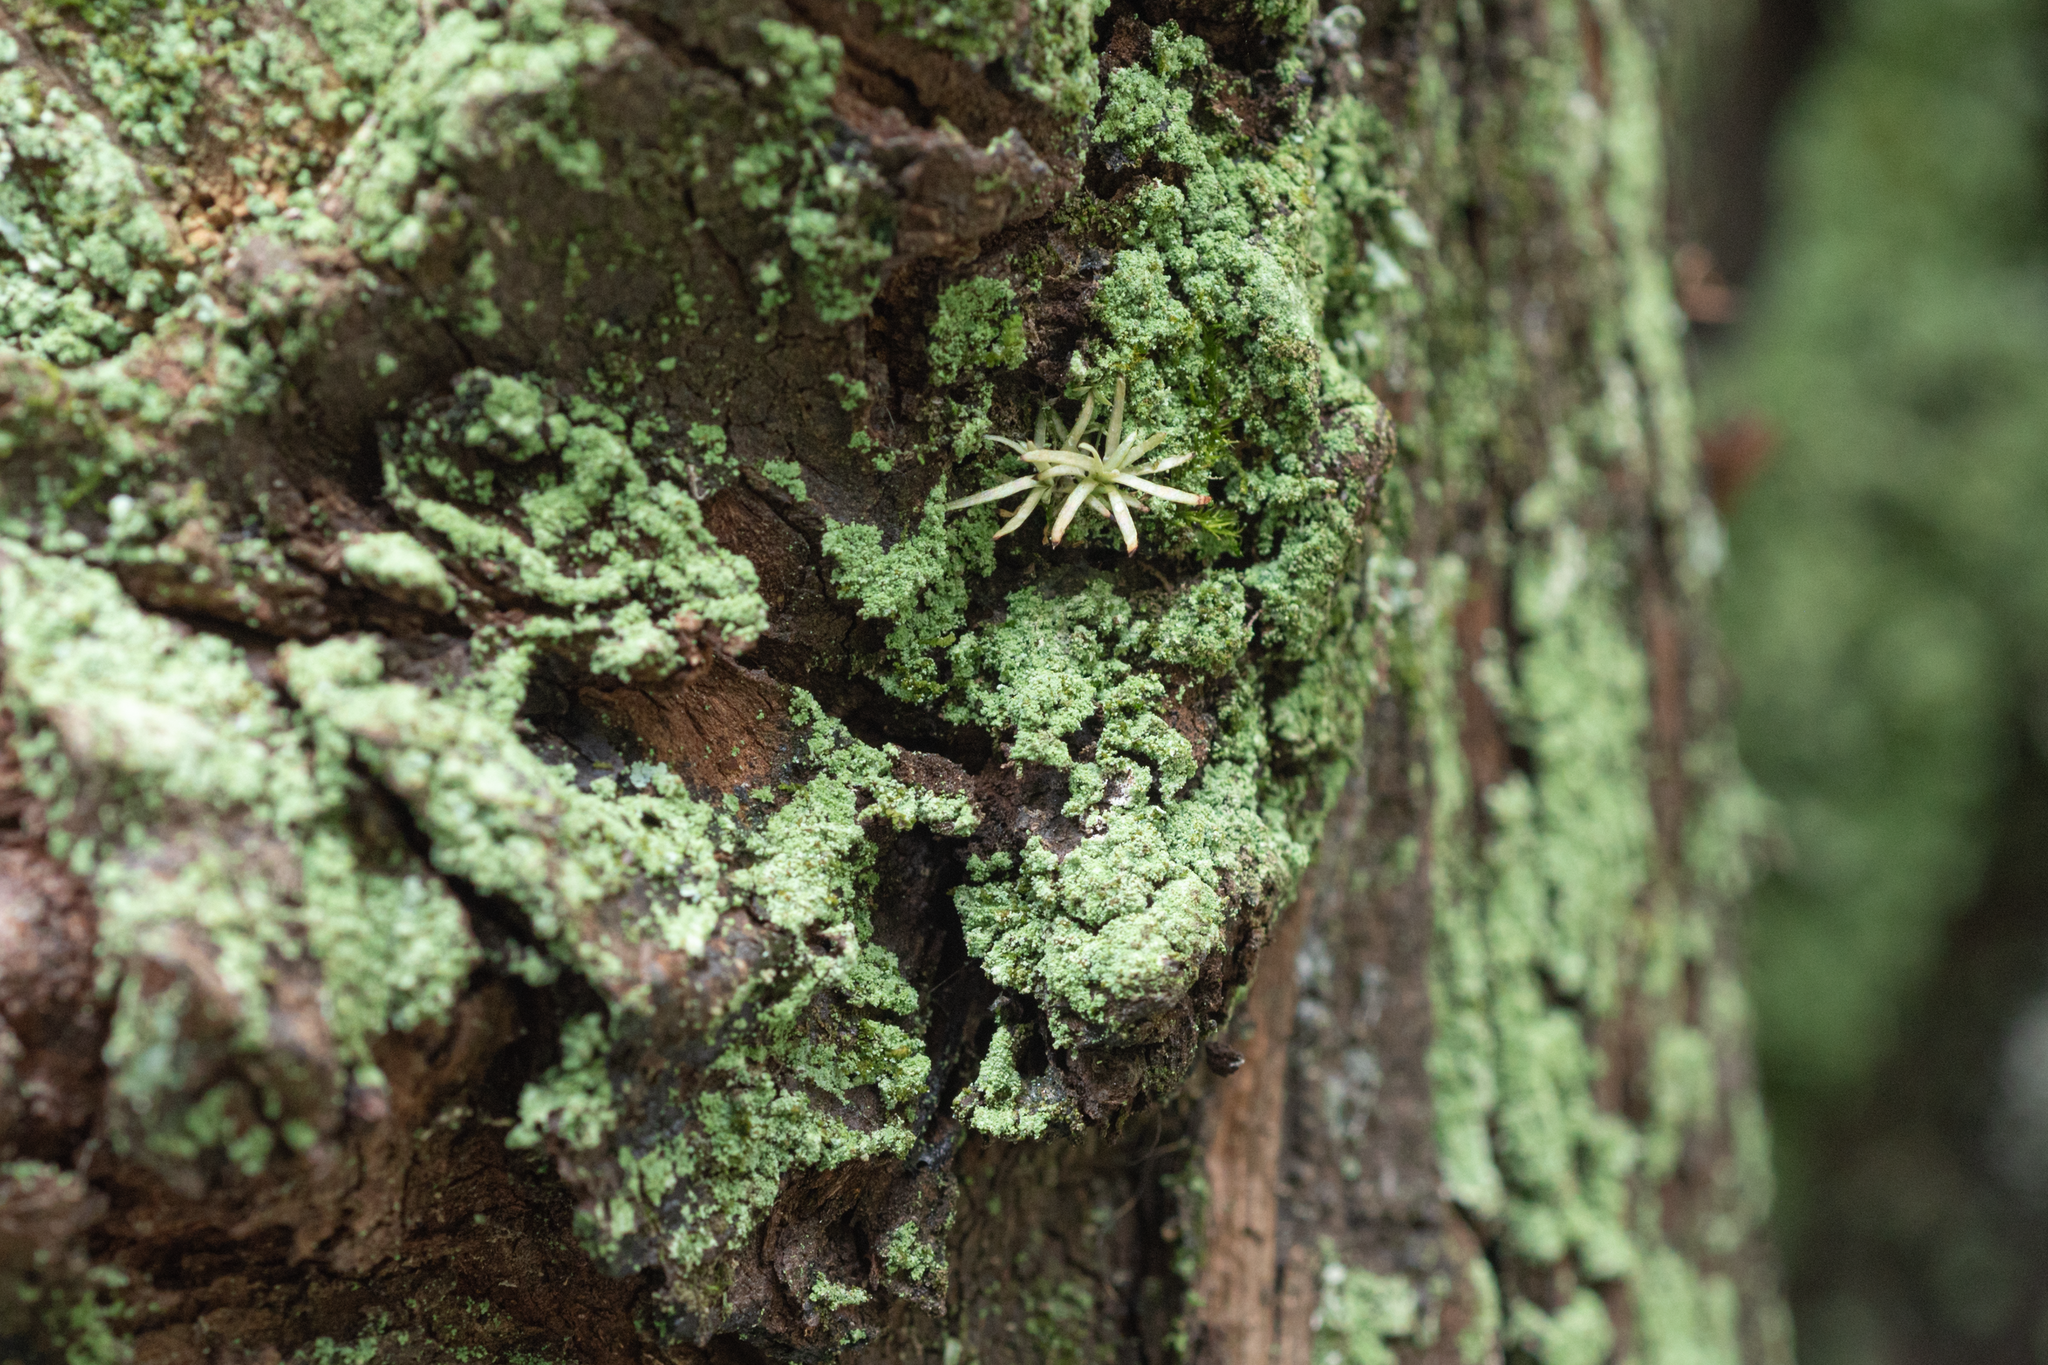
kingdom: Plantae
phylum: Bryophyta
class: Bryopsida
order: Dicranales
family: Octoblepharaceae
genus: Octoblepharum
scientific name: Octoblepharum albidum
